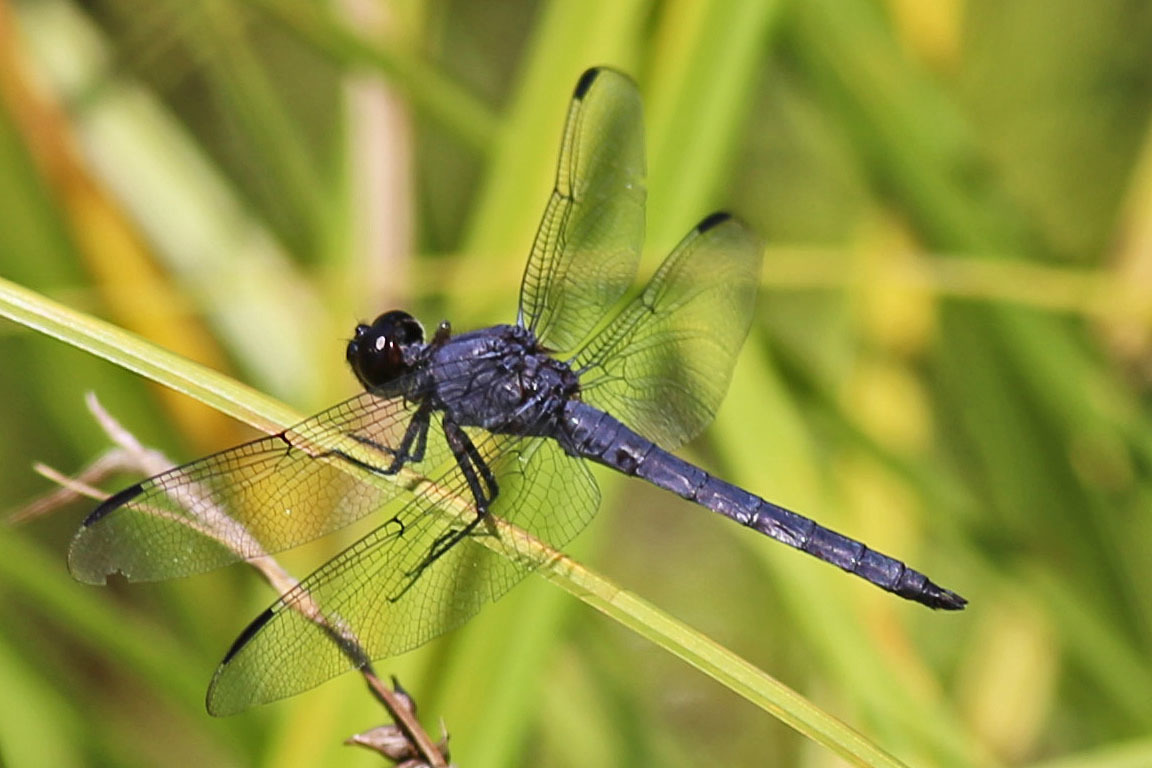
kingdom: Animalia
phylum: Arthropoda
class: Insecta
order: Odonata
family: Libellulidae
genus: Libellula
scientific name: Libellula incesta
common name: Slaty skimmer
